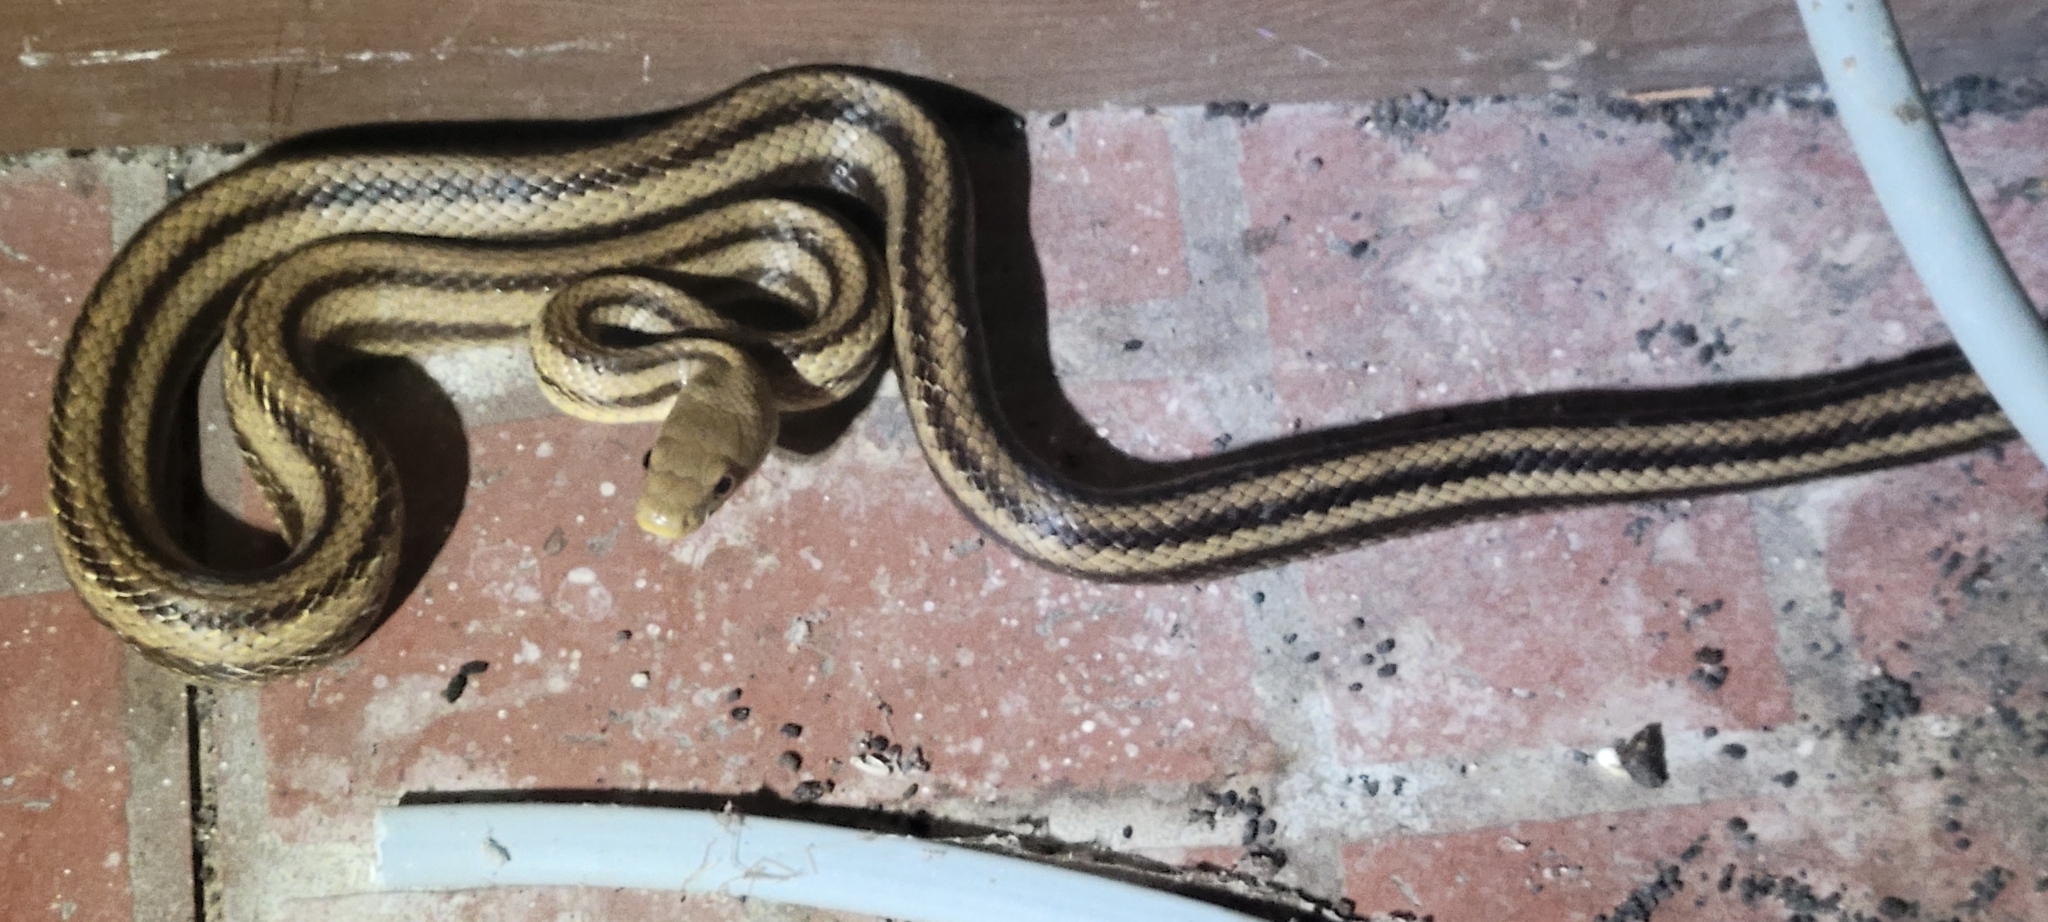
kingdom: Animalia
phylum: Chordata
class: Squamata
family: Colubridae
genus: Pantherophis
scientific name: Pantherophis alleghaniensis
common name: Eastern rat snake
